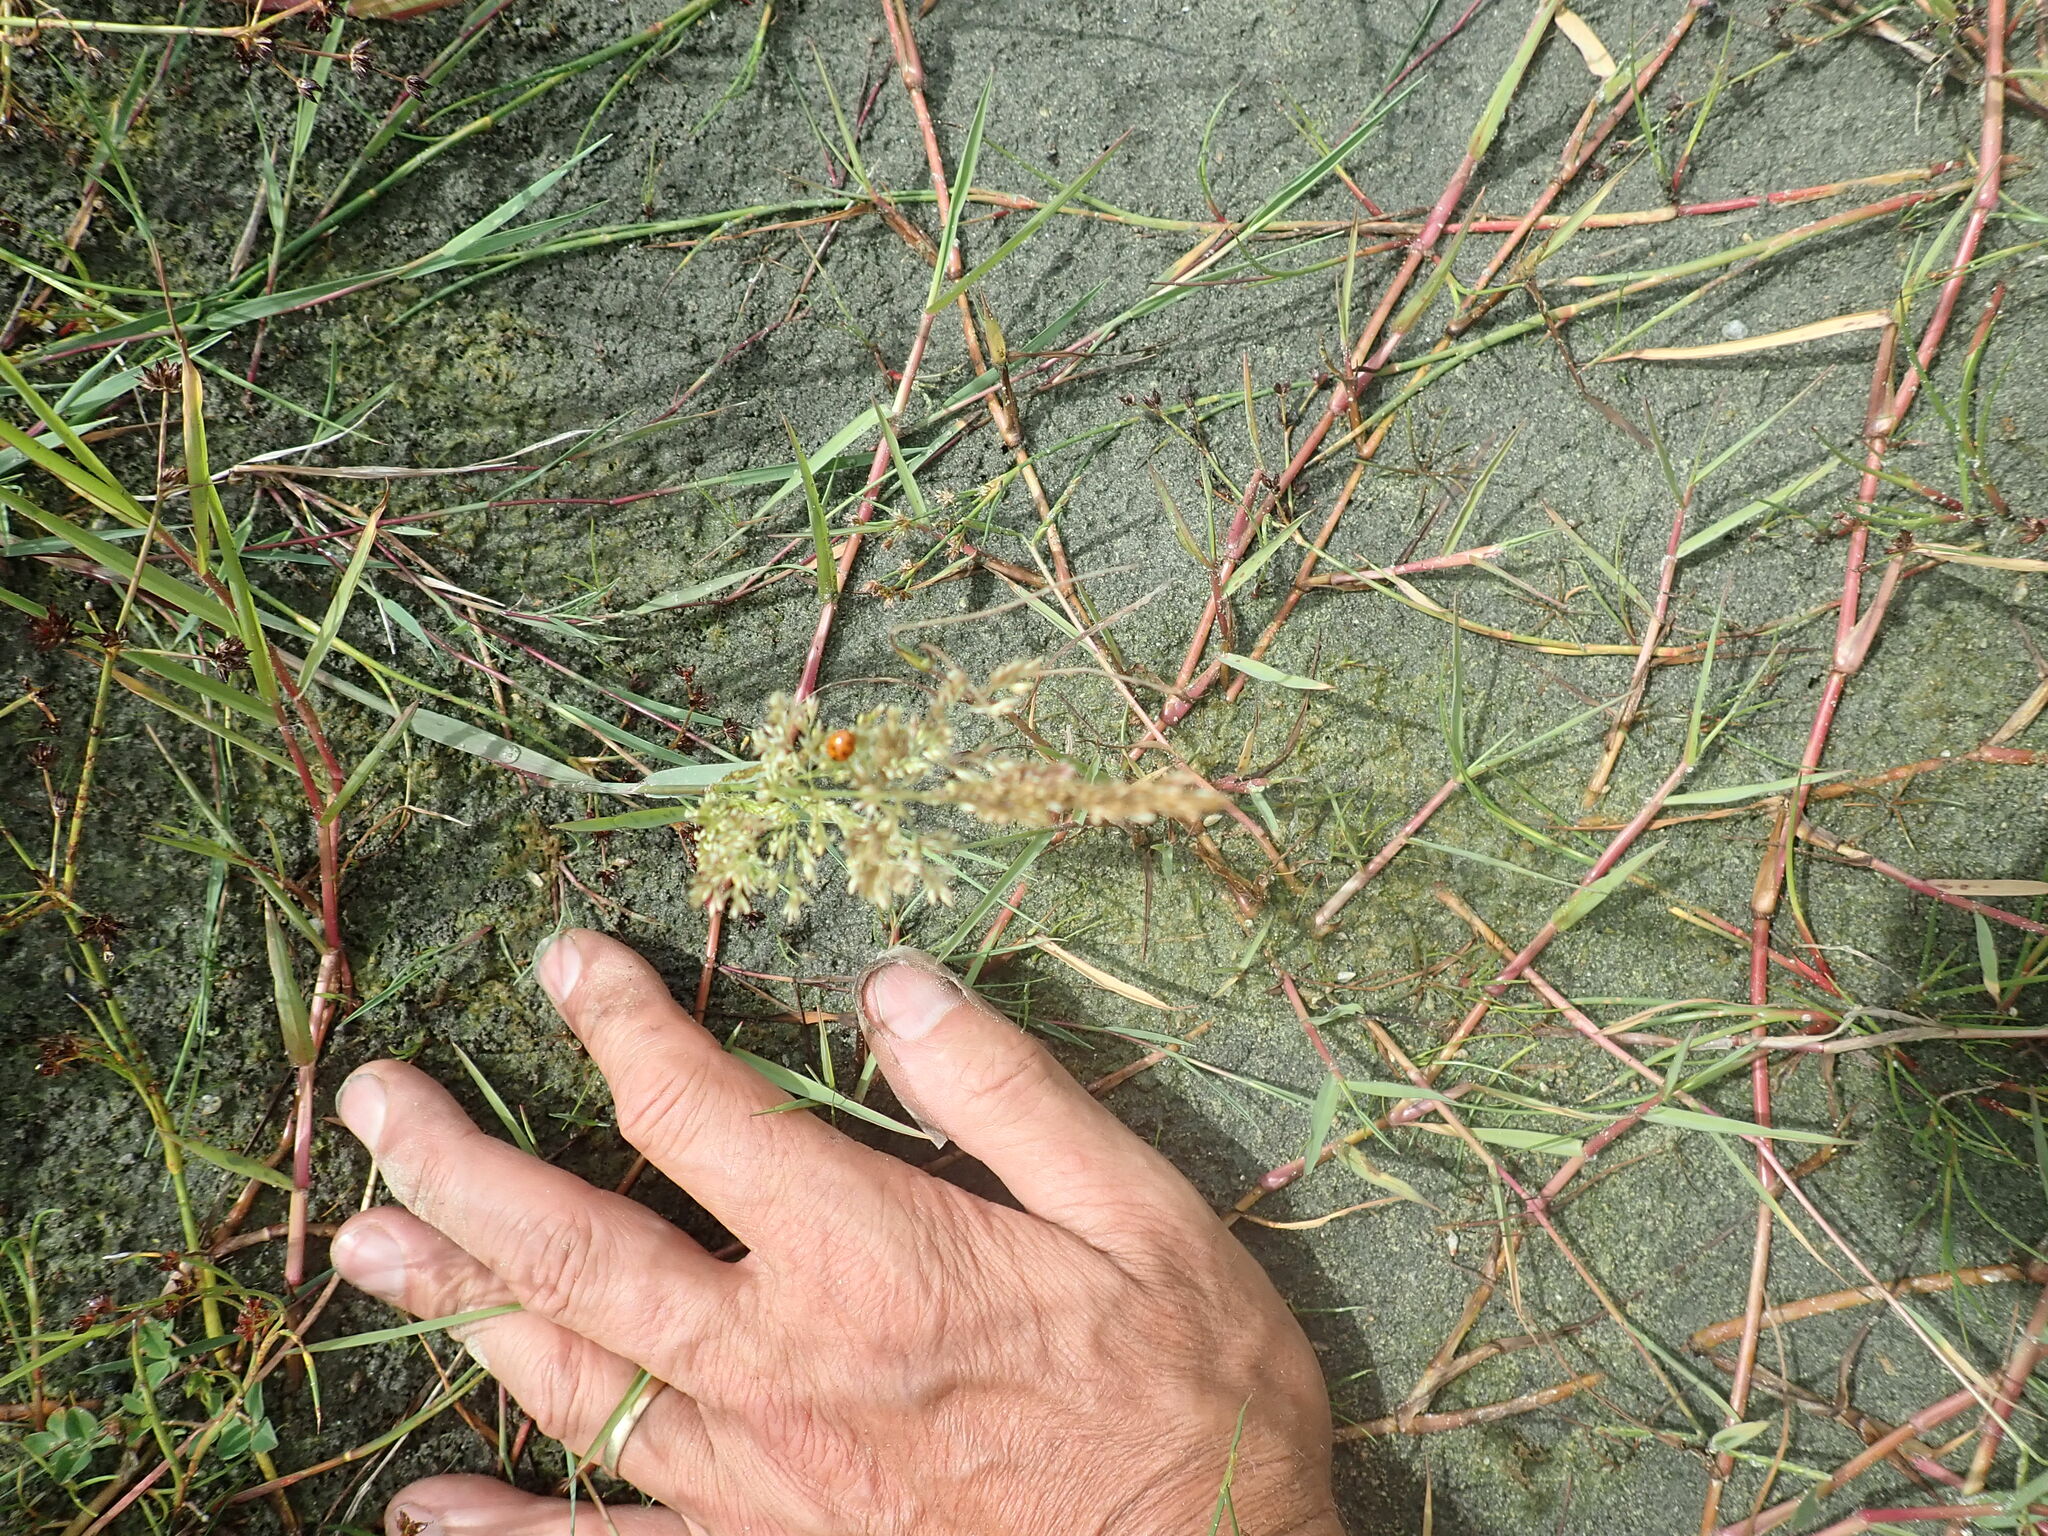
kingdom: Animalia
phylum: Arthropoda
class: Insecta
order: Coleoptera
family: Coccinellidae
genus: Coccinella
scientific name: Coccinella undecimpunctata
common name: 11-spot ladybird
